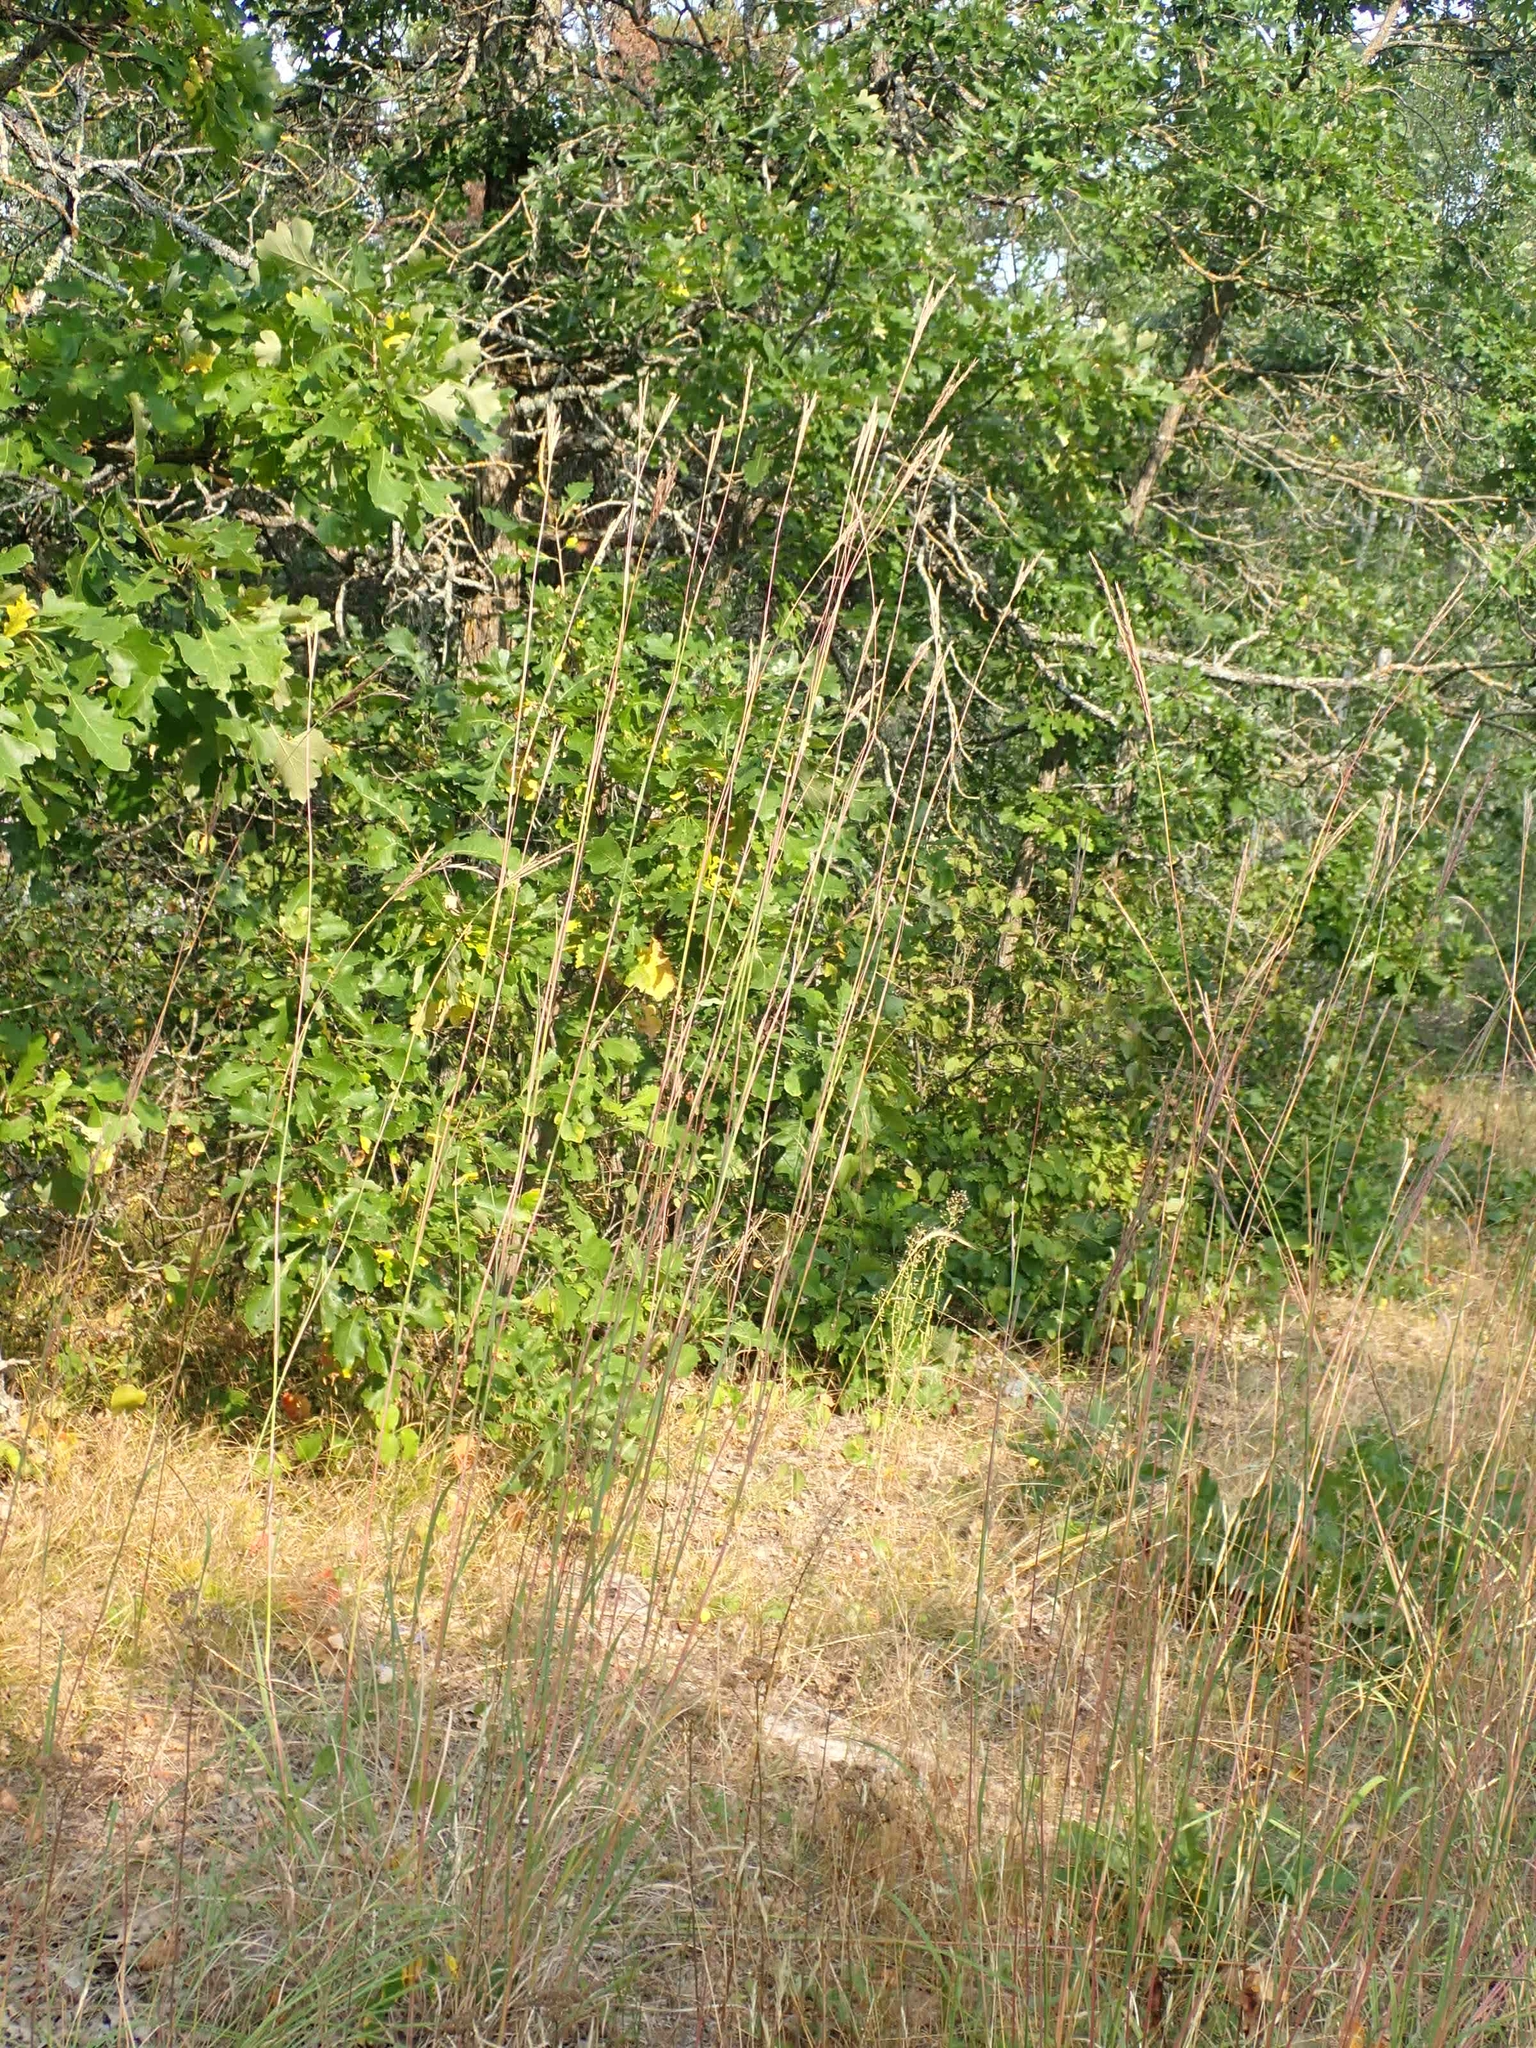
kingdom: Plantae
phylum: Tracheophyta
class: Liliopsida
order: Poales
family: Poaceae
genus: Andropogon
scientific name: Andropogon gerardi
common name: Big bluestem
